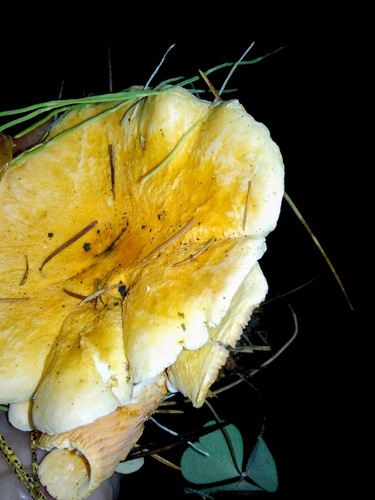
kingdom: Fungi
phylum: Basidiomycota
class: Agaricomycetes
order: Boletales
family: Hygrophoropsidaceae
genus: Hygrophoropsis
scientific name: Hygrophoropsis aurantiaca
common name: False chanterelle
